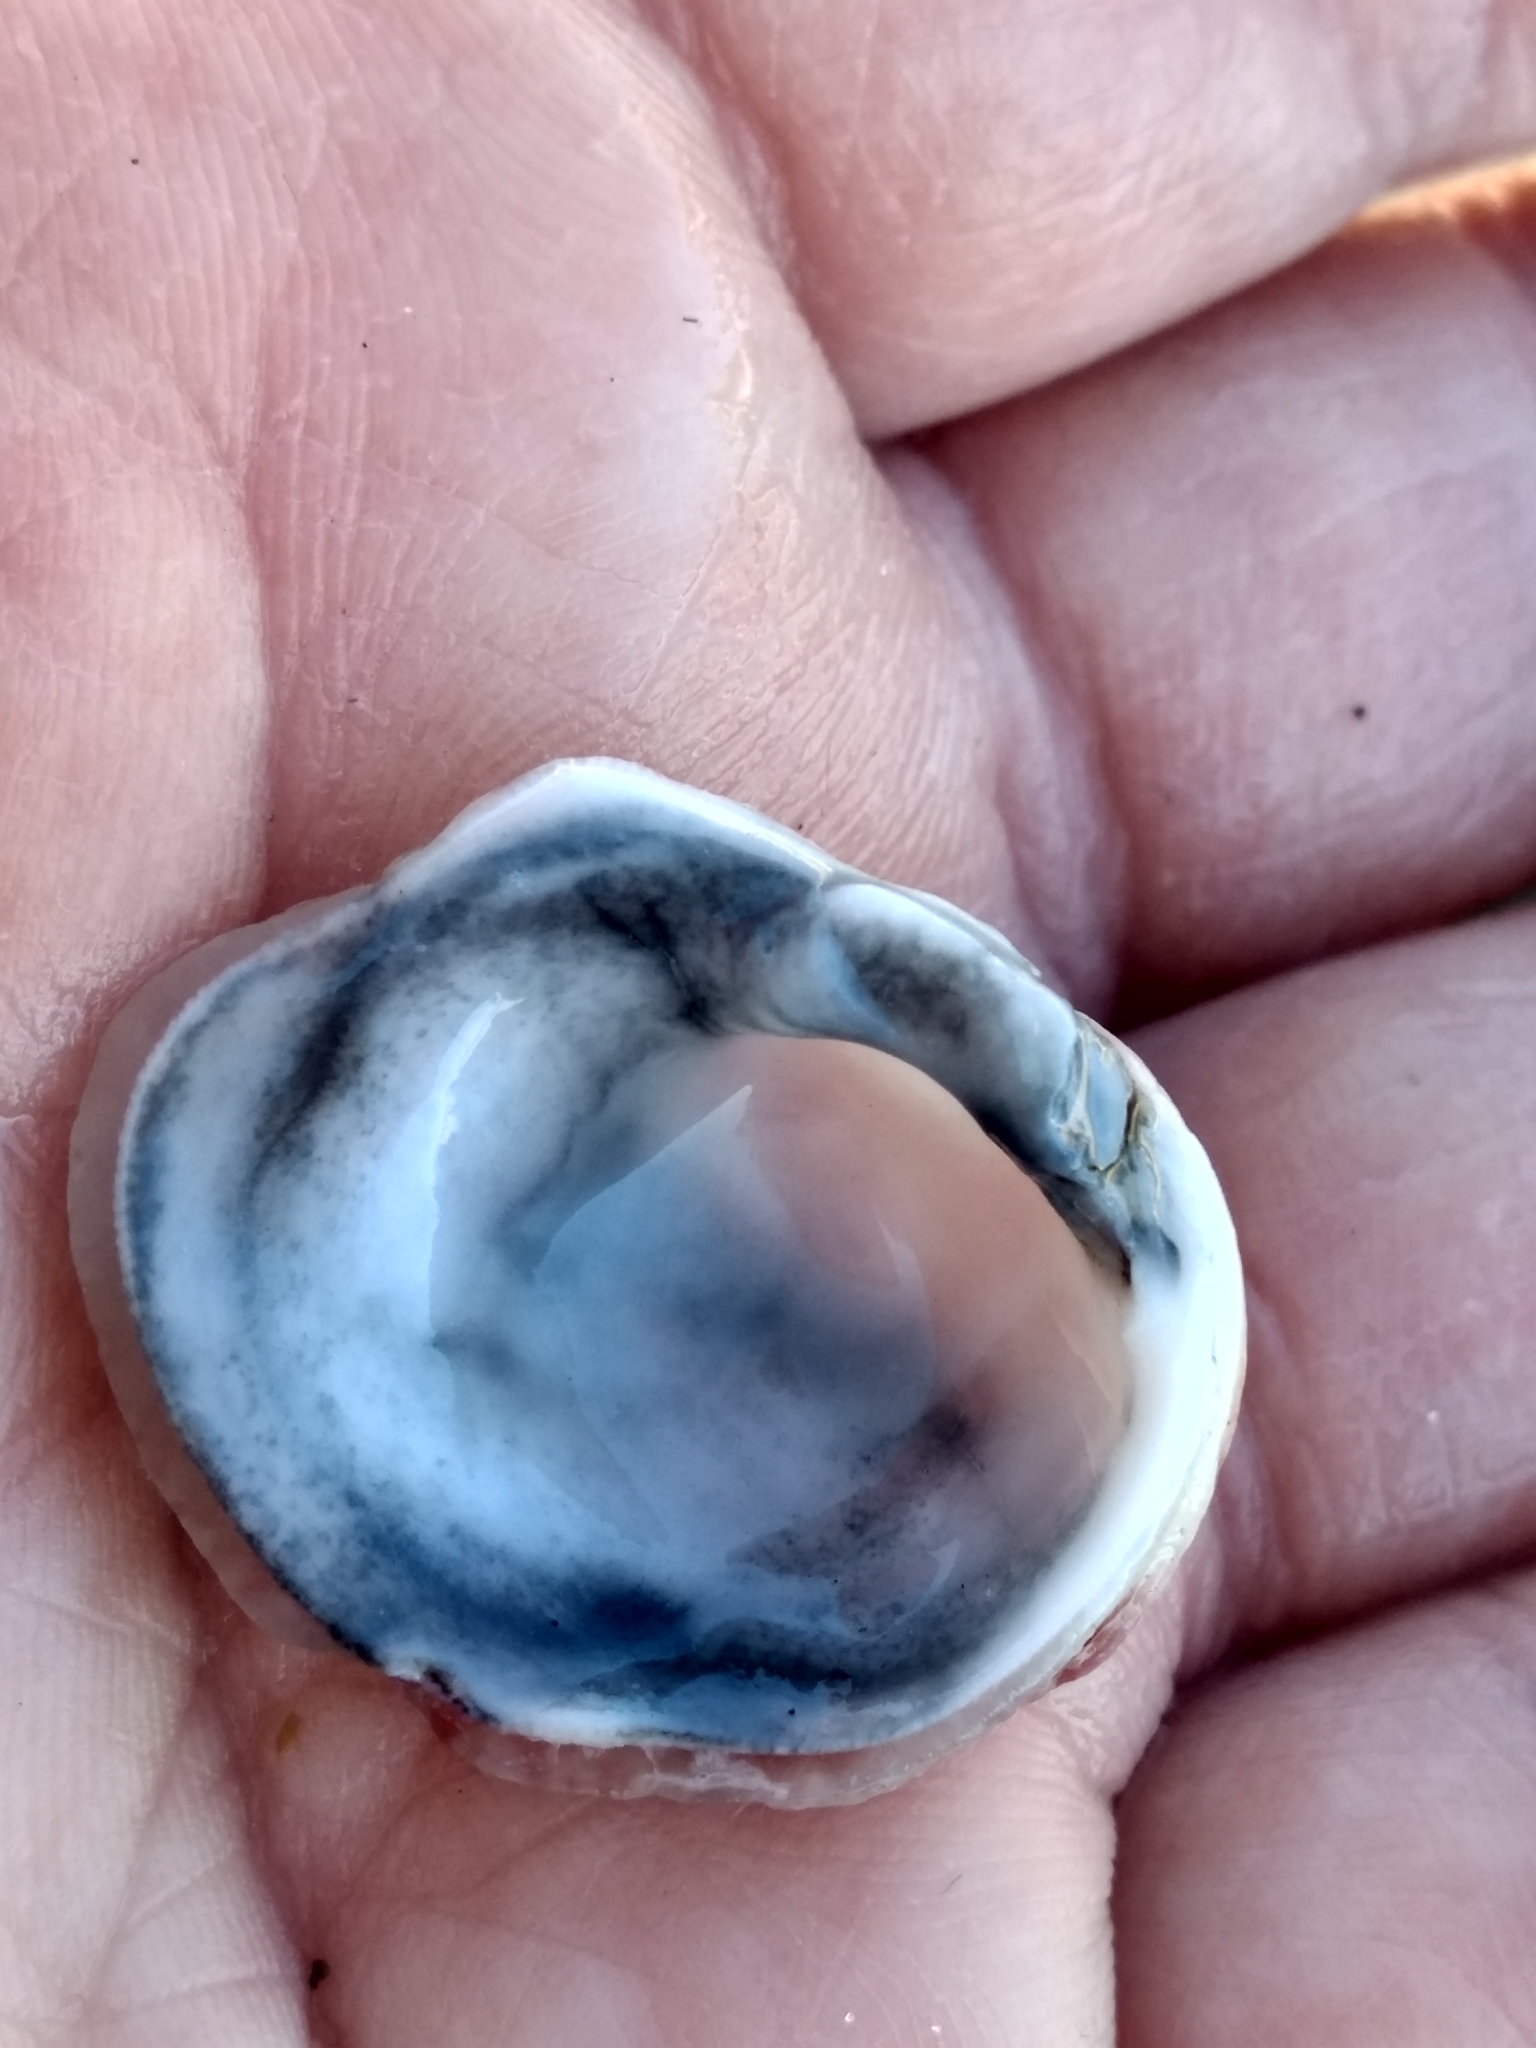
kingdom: Animalia
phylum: Mollusca
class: Bivalvia
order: Venerida
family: Chamidae
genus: Chama
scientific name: Chama arcana
